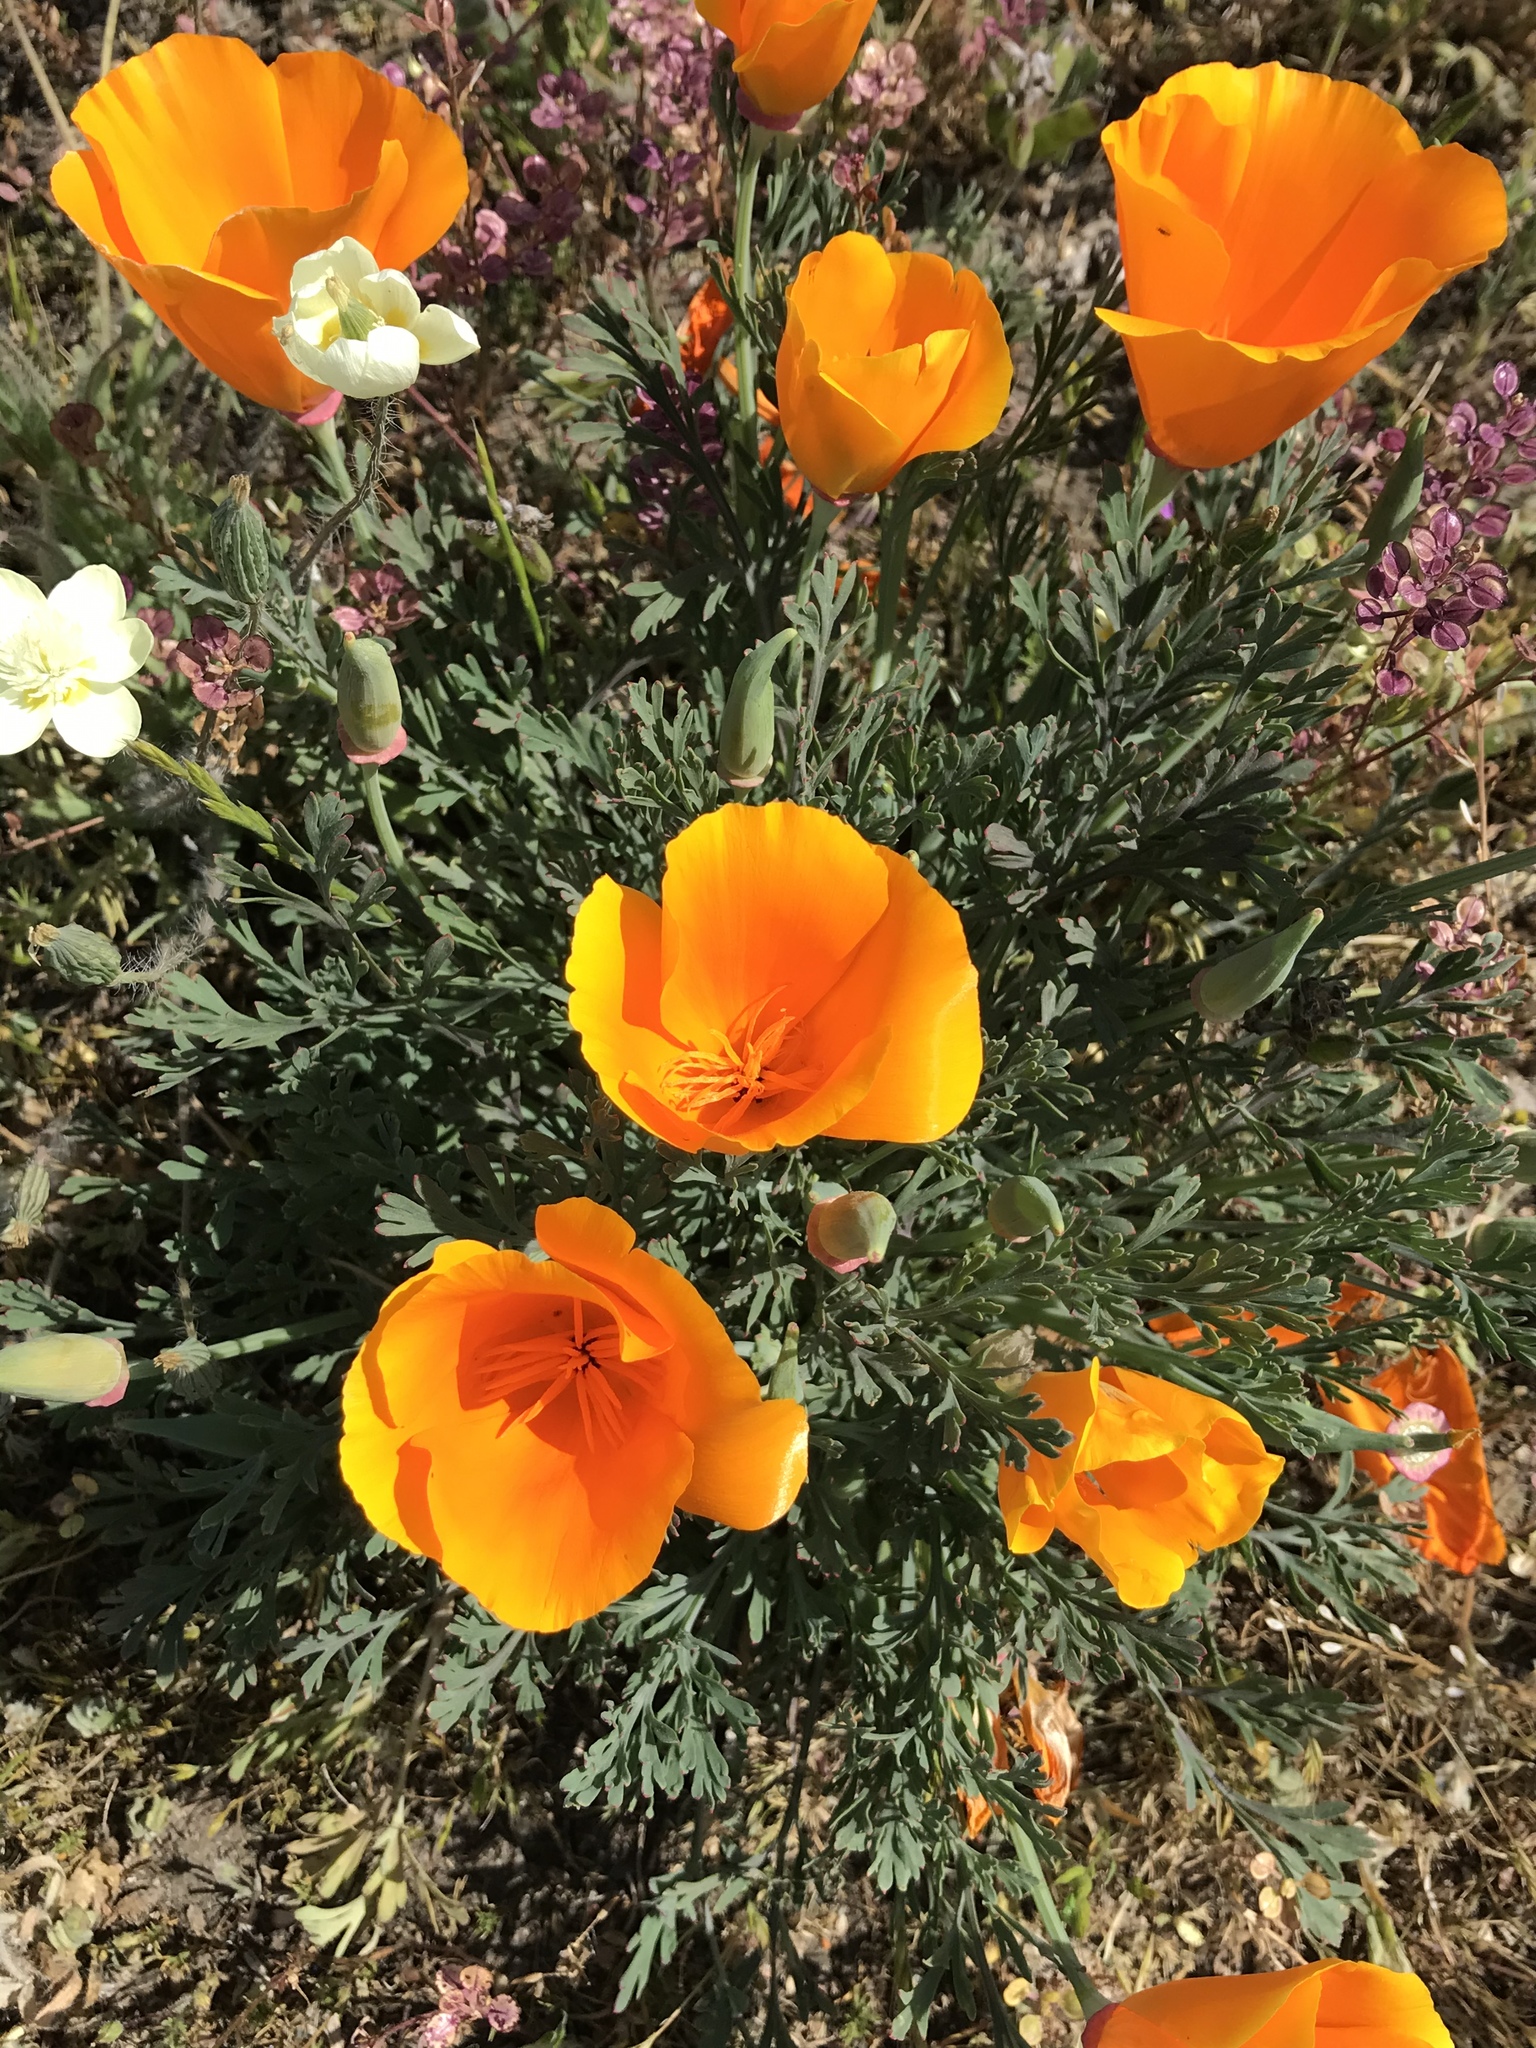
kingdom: Plantae
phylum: Tracheophyta
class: Magnoliopsida
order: Ranunculales
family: Papaveraceae
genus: Eschscholzia
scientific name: Eschscholzia californica
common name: California poppy
